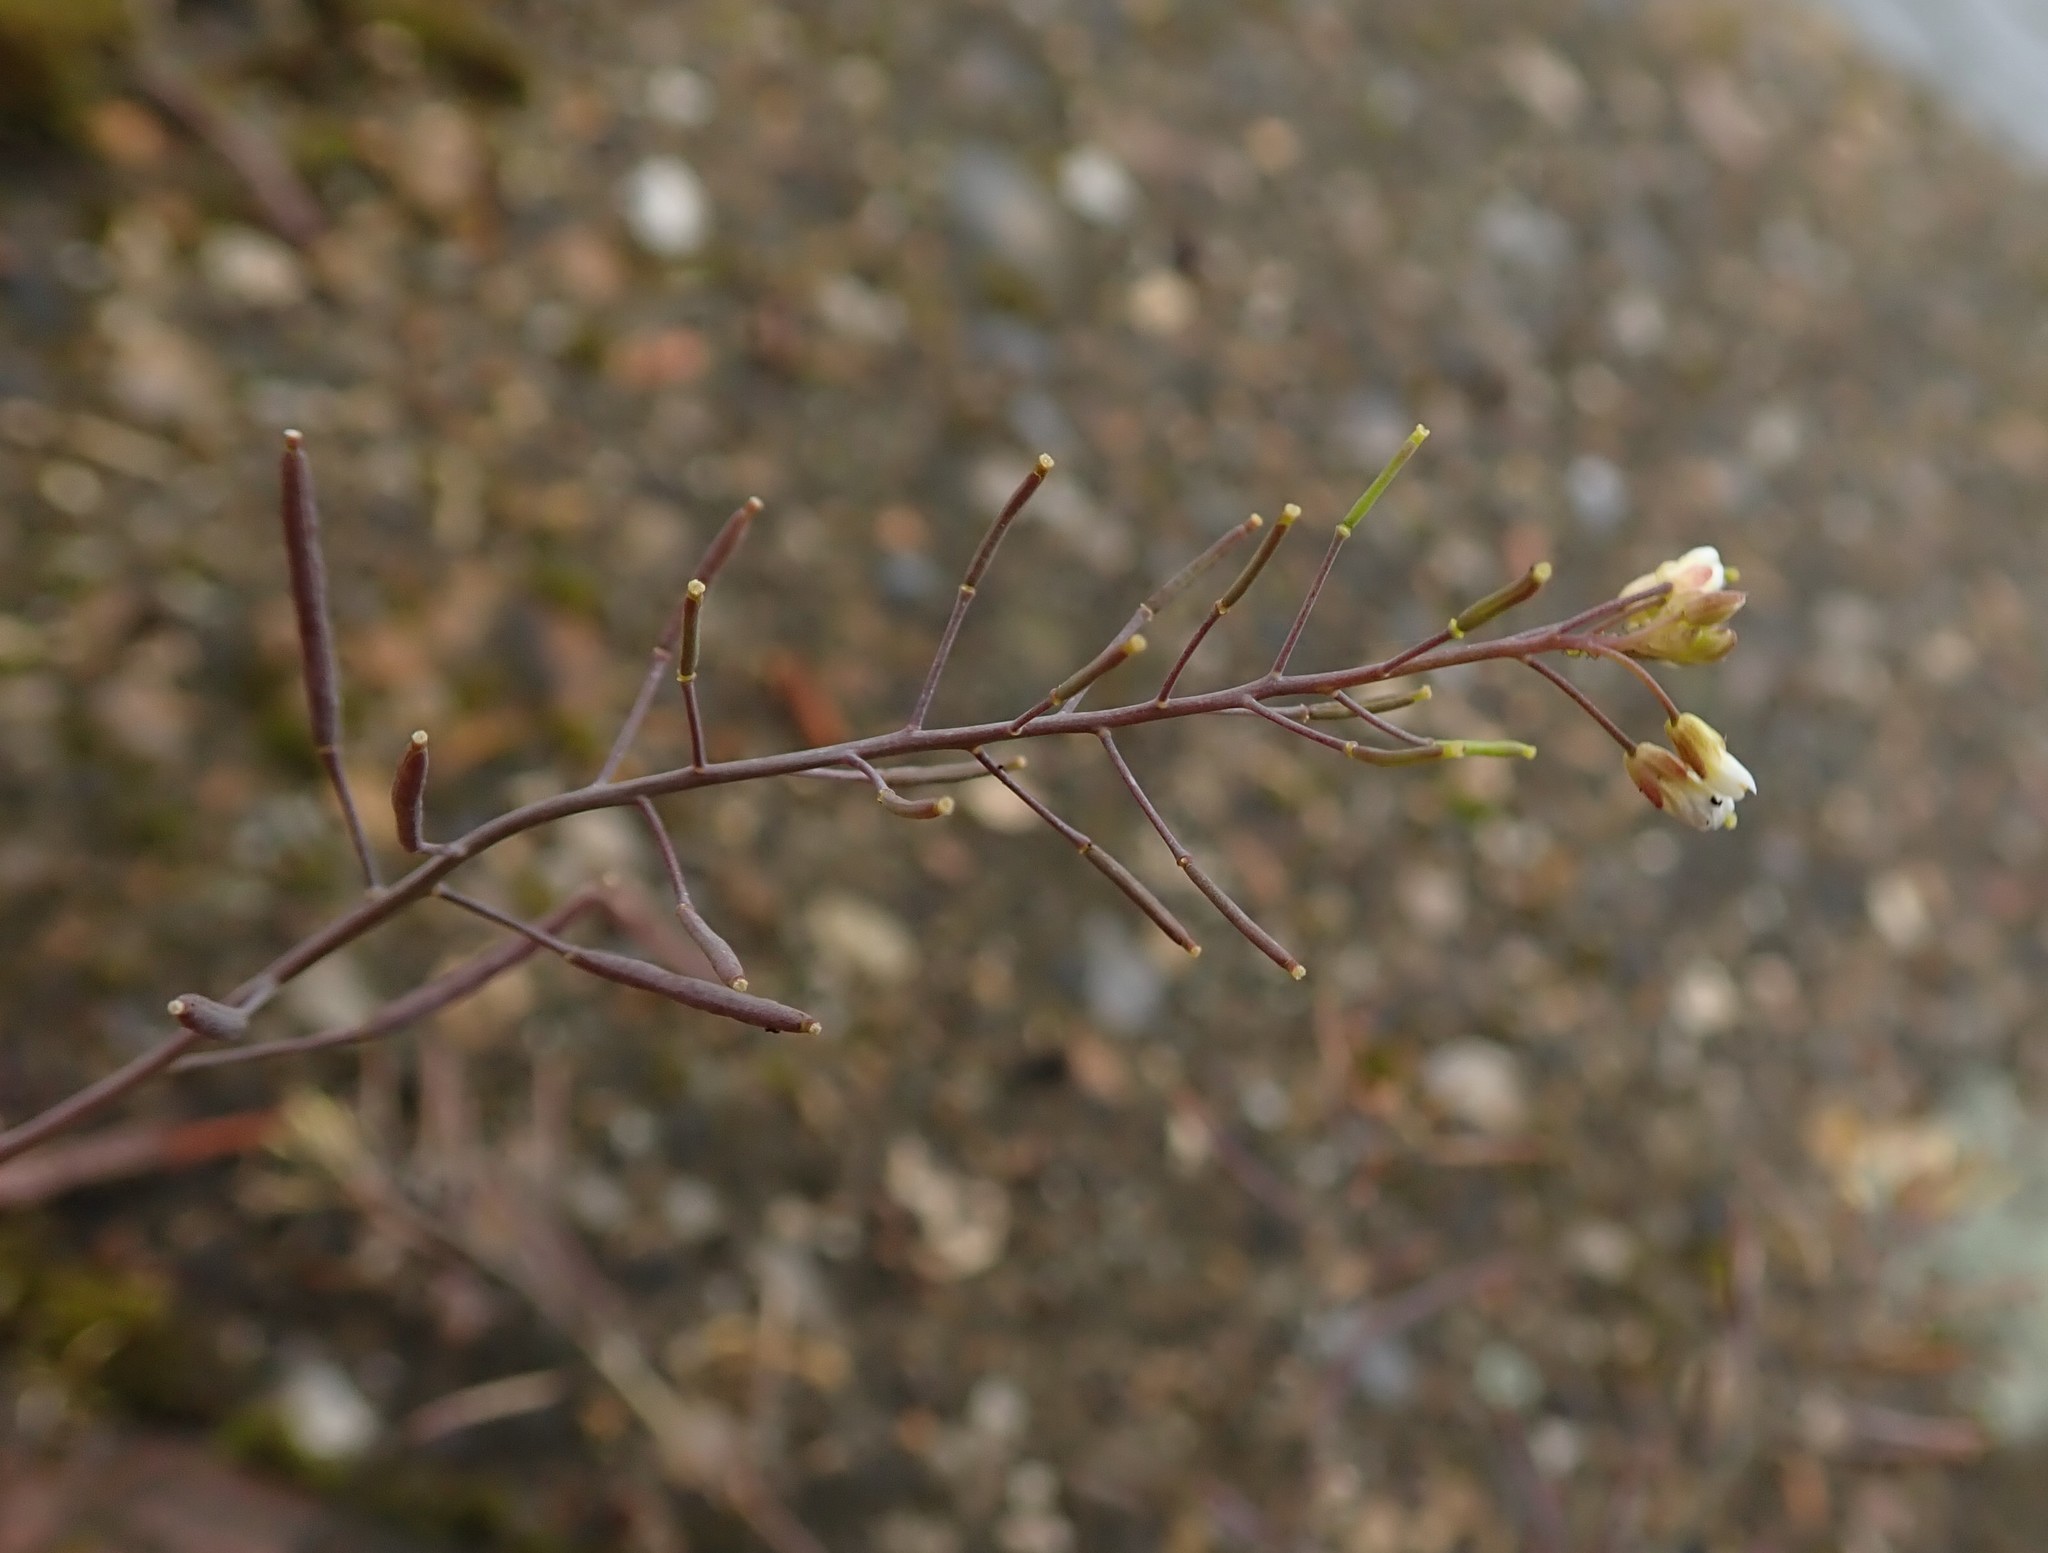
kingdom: Plantae
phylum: Tracheophyta
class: Magnoliopsida
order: Brassicales
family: Brassicaceae
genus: Arabidopsis
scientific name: Arabidopsis thaliana
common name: Thale cress
